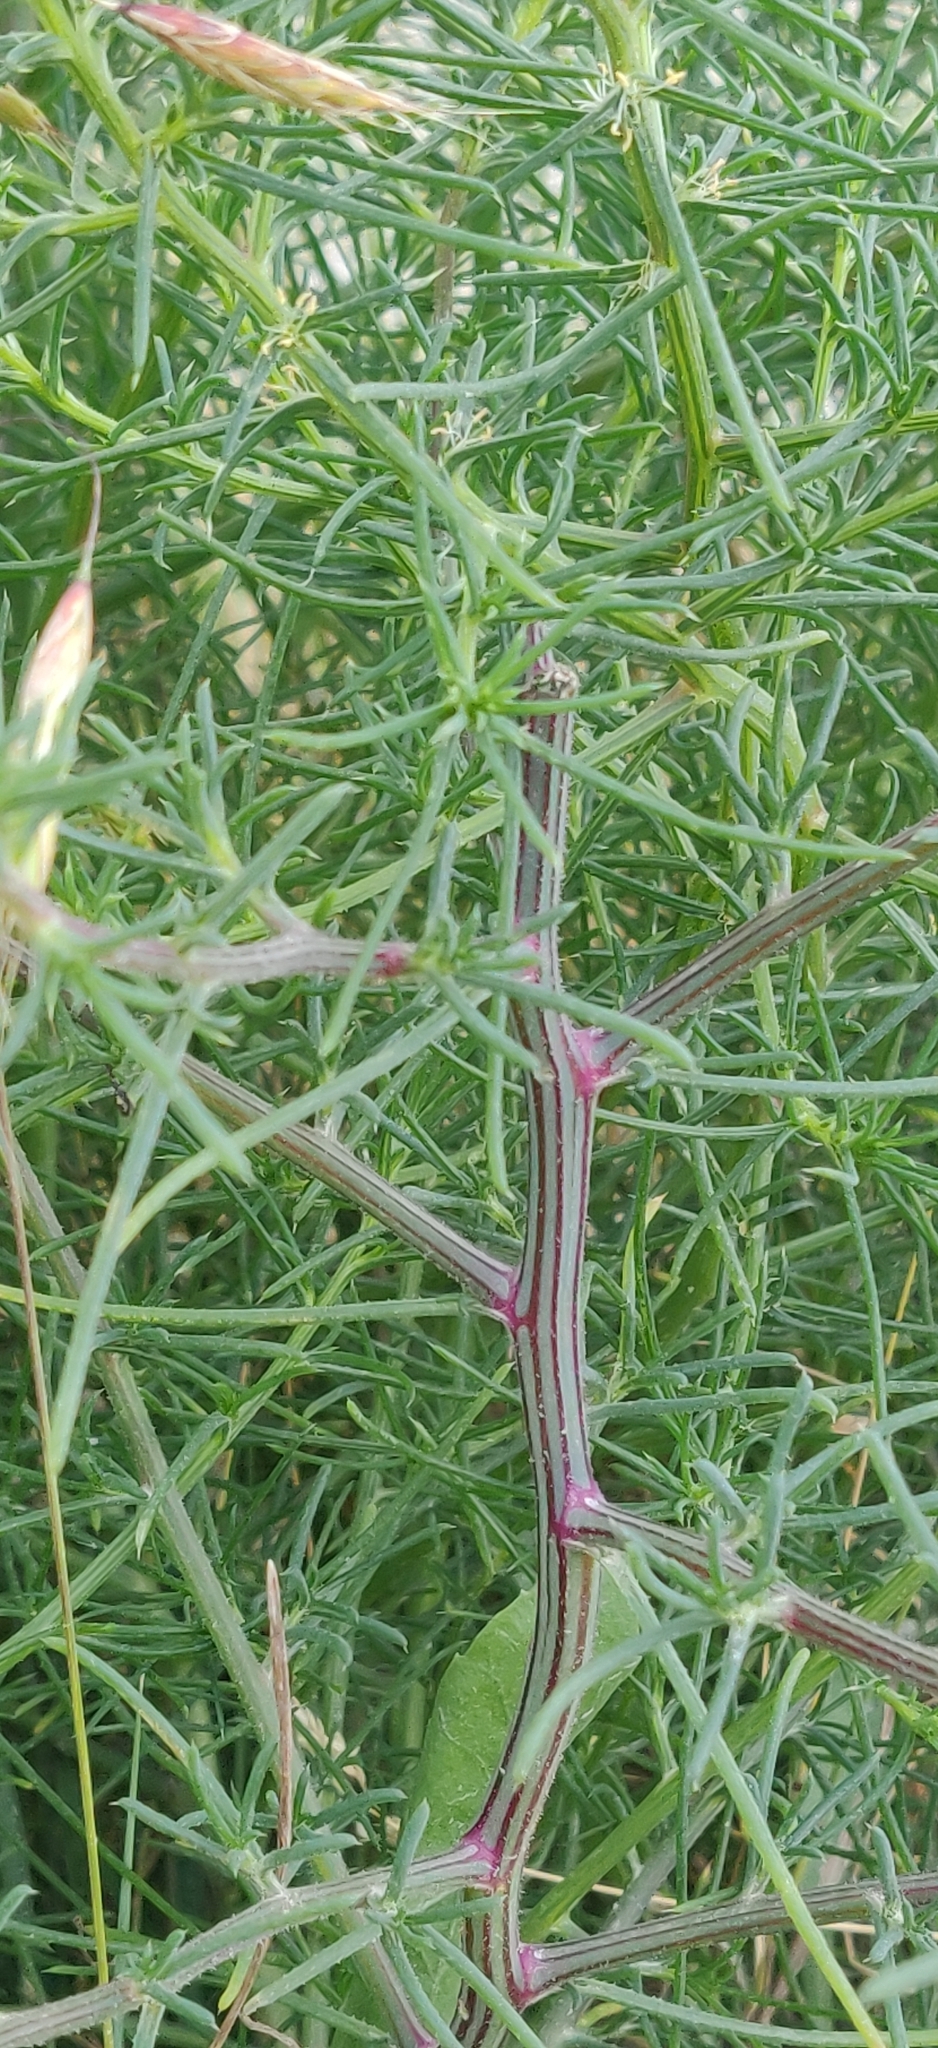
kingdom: Plantae
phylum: Tracheophyta
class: Magnoliopsida
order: Caryophyllales
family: Amaranthaceae
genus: Salsola
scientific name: Salsola tragus
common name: Prickly russian thistle
